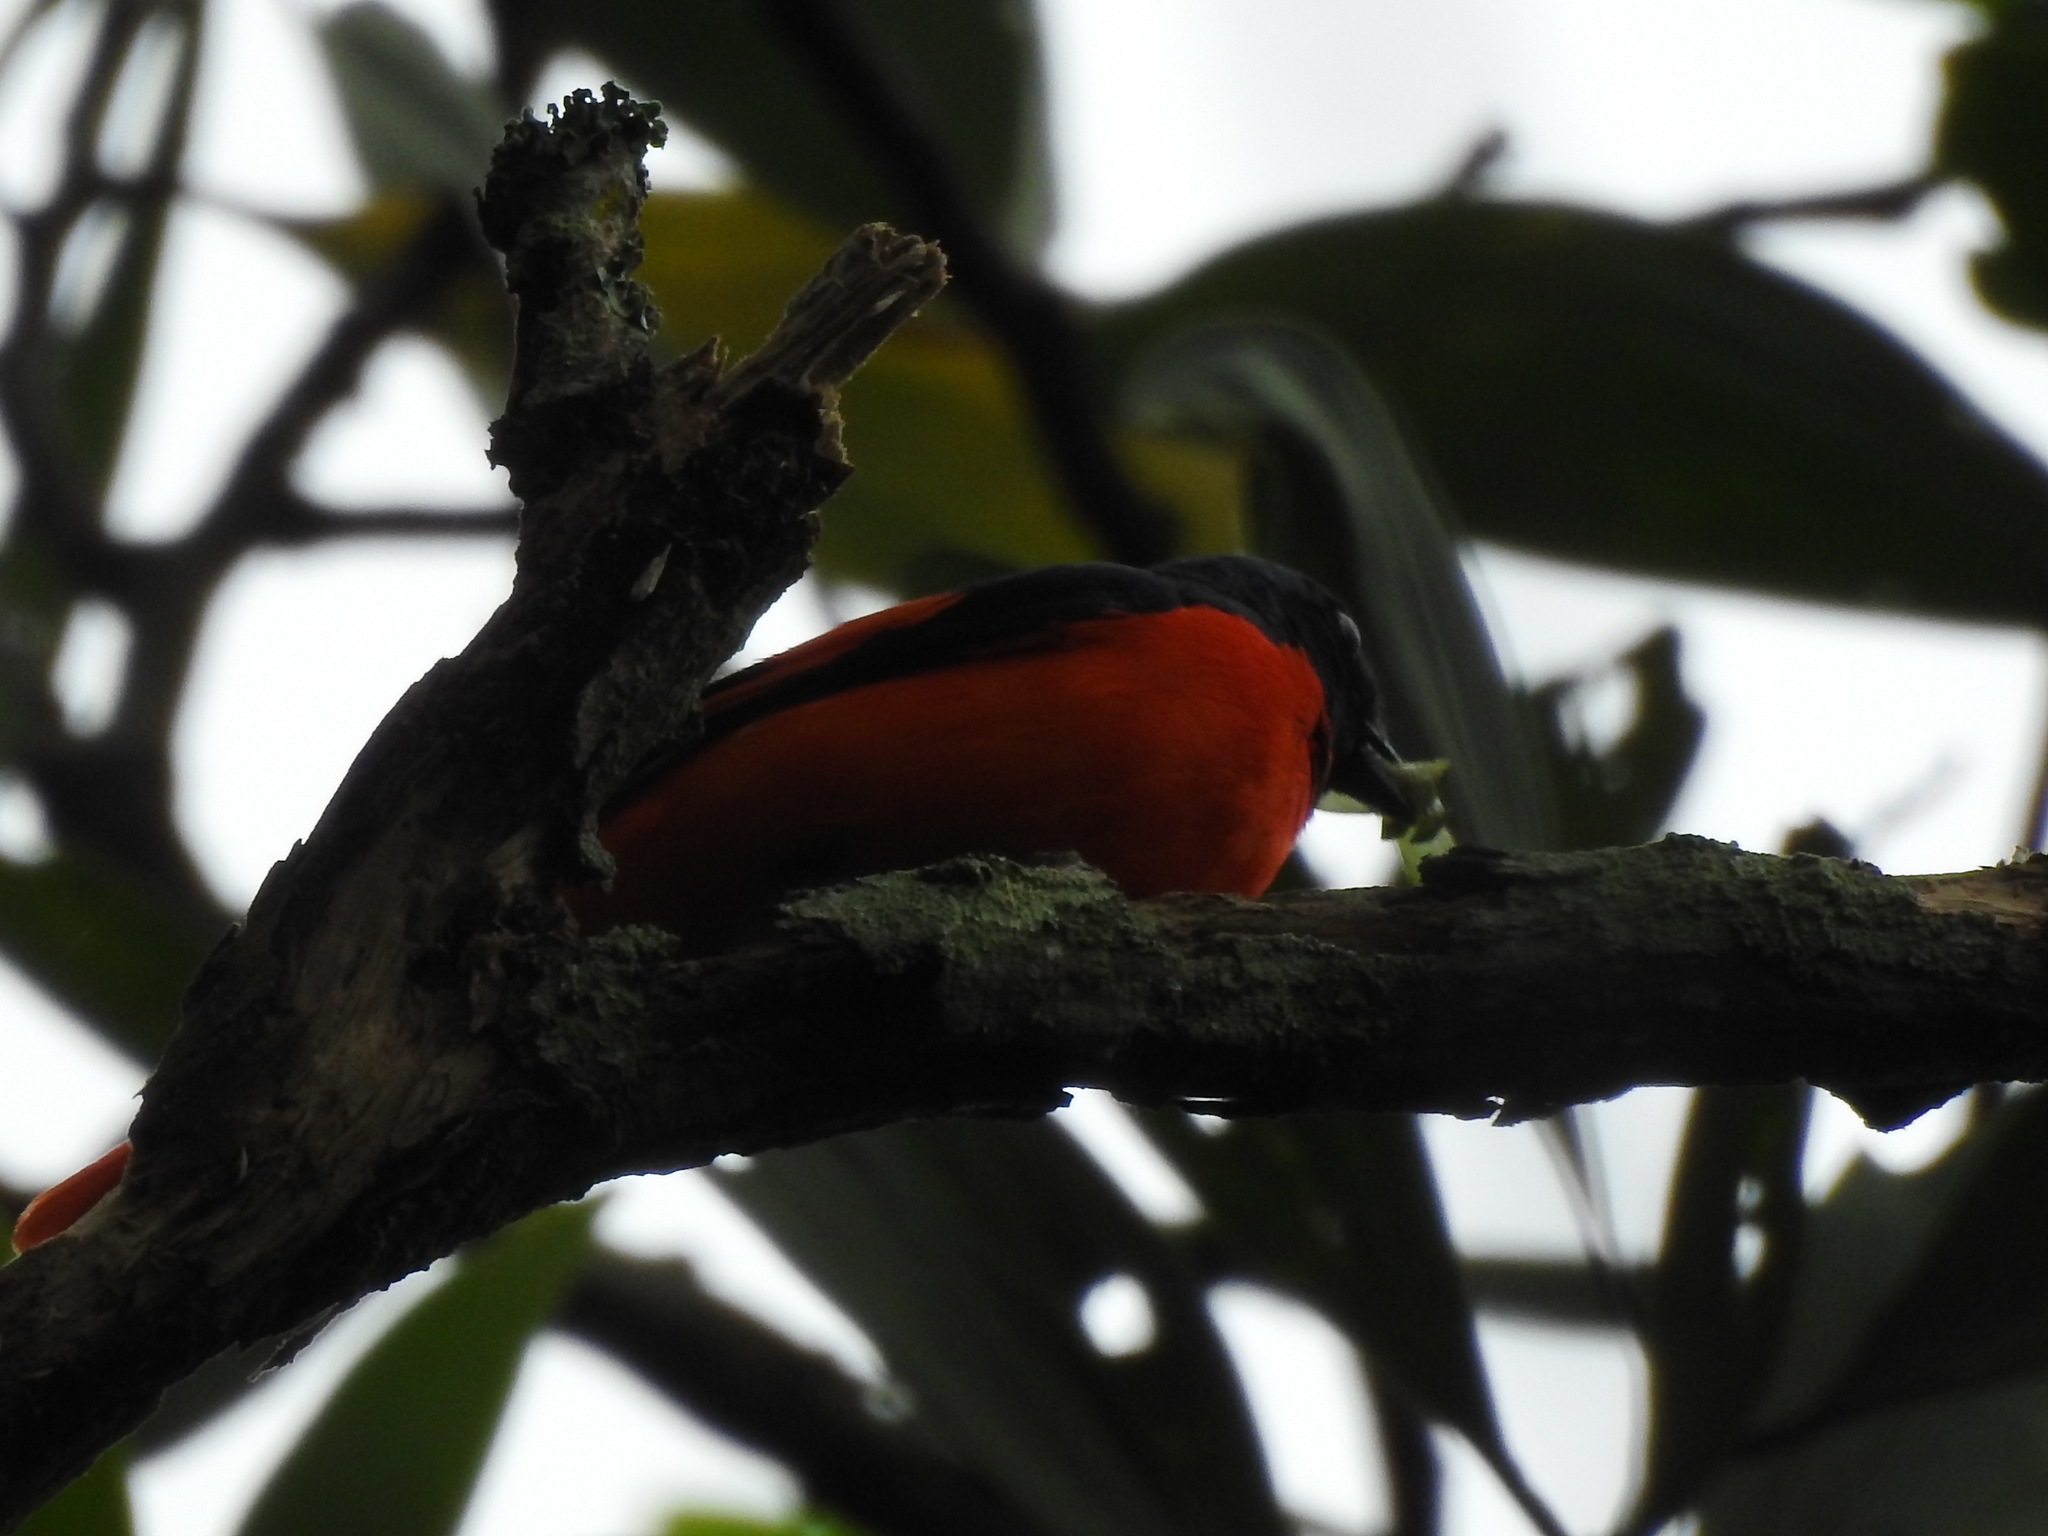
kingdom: Animalia
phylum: Chordata
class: Aves
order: Passeriformes
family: Campephagidae
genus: Pericrocotus
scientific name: Pericrocotus speciosus
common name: Scarlet minivet
